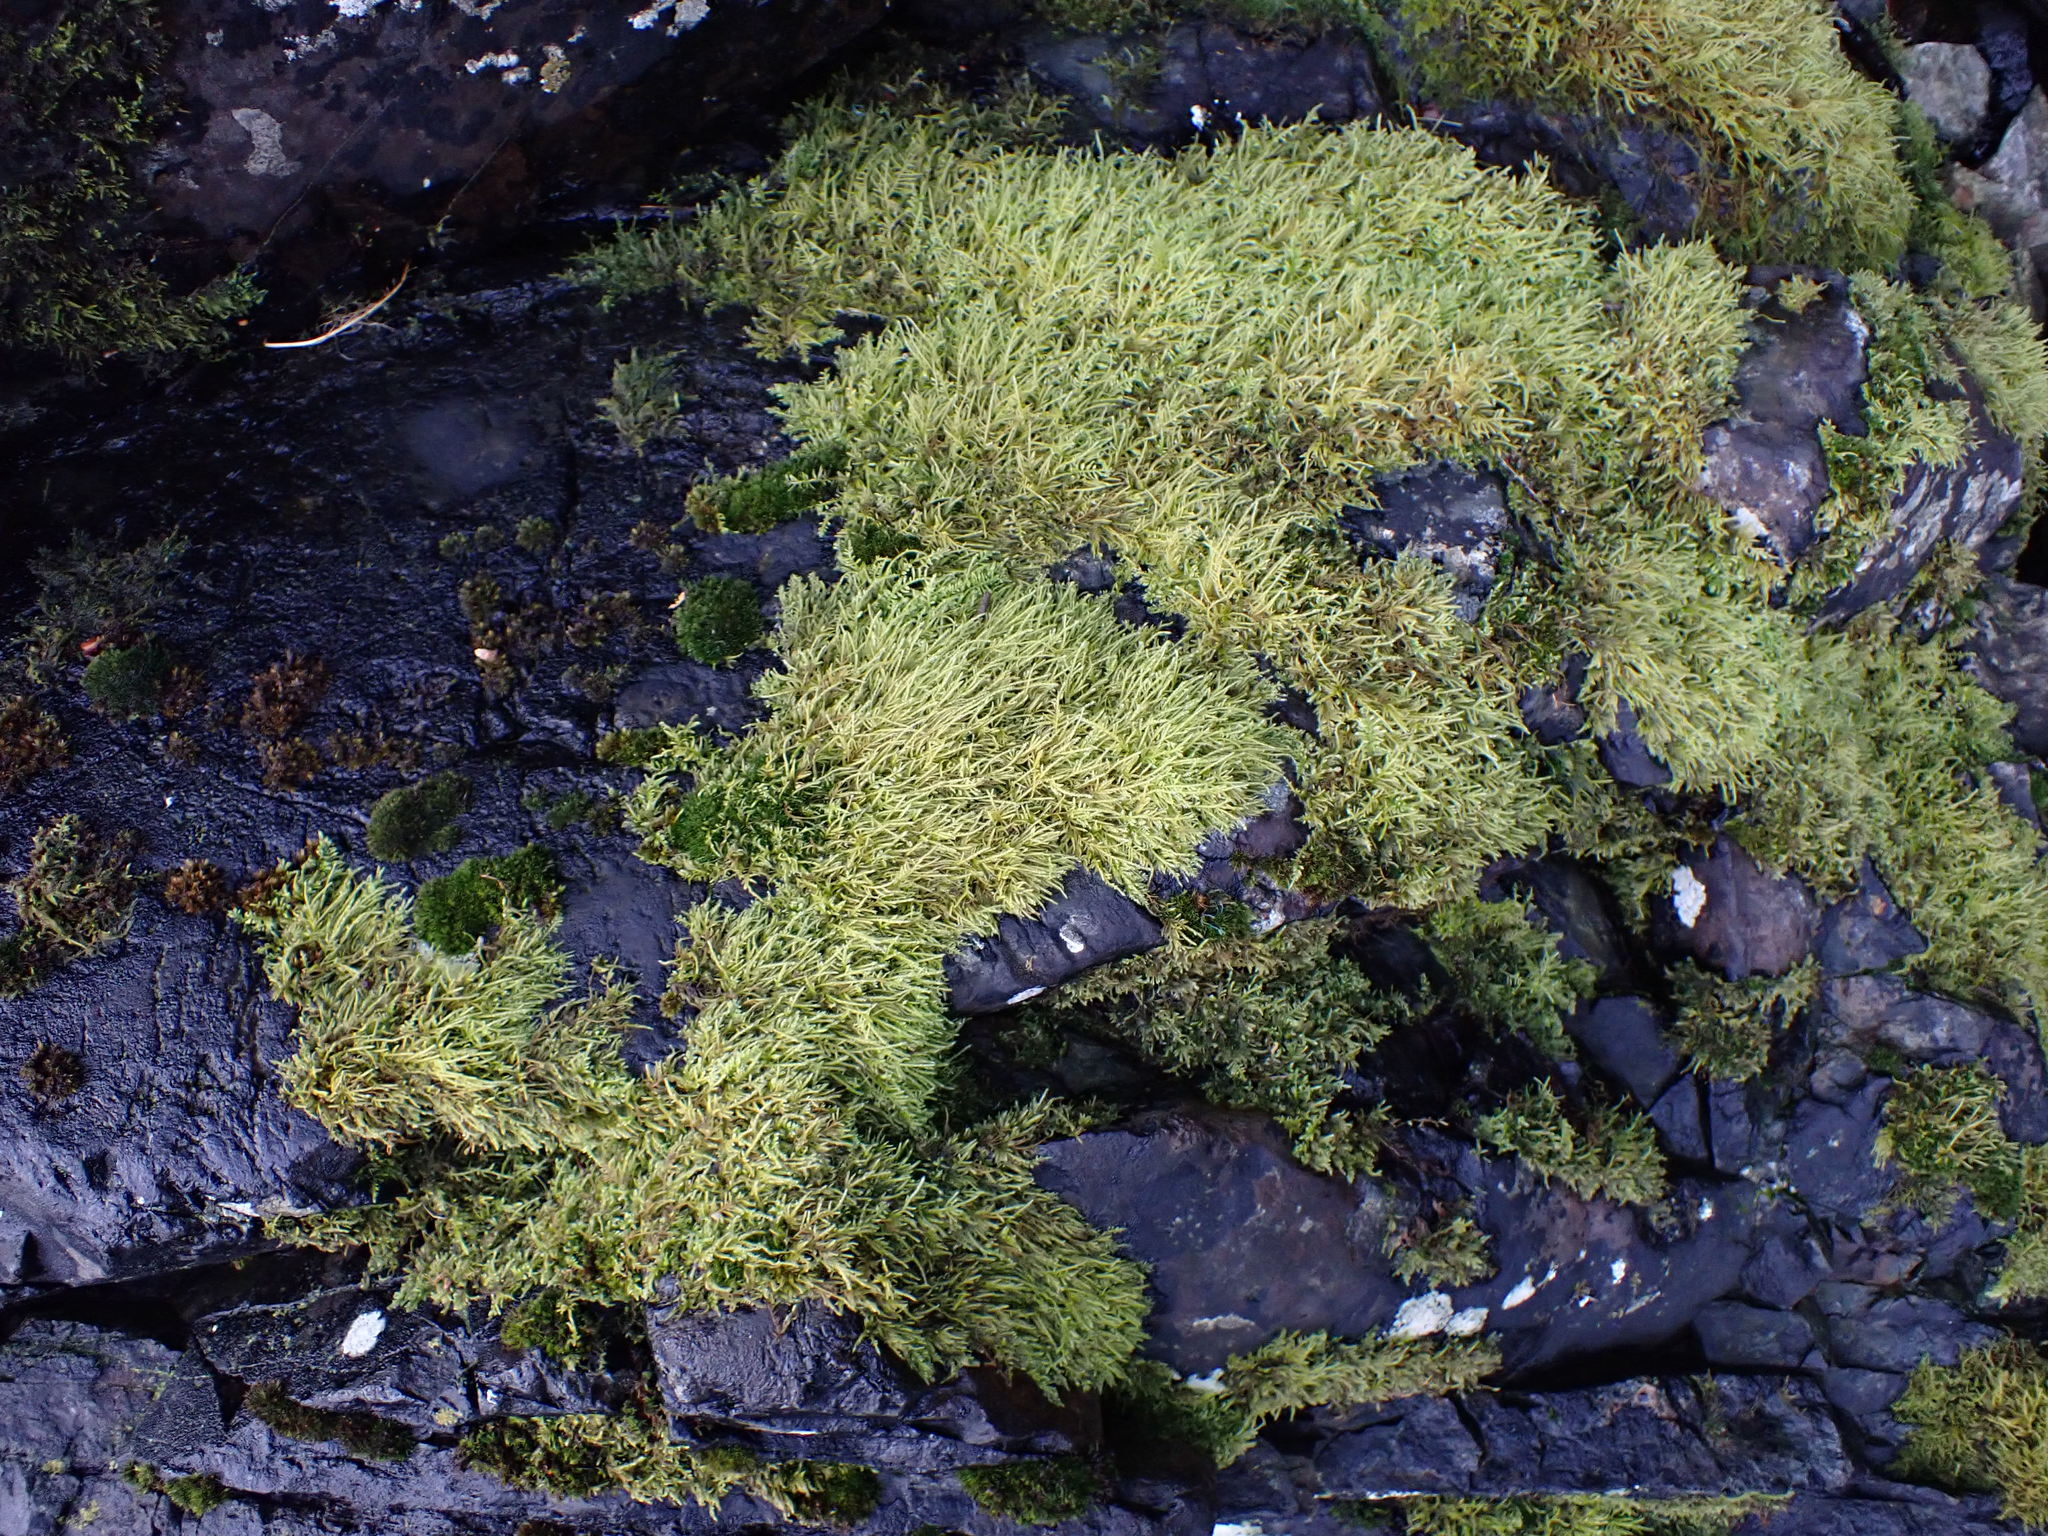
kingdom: Plantae
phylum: Bryophyta
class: Bryopsida
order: Hypnales
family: Brachytheciaceae
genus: Kindbergia
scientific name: Kindbergia praelonga
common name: Slender beaked moss
